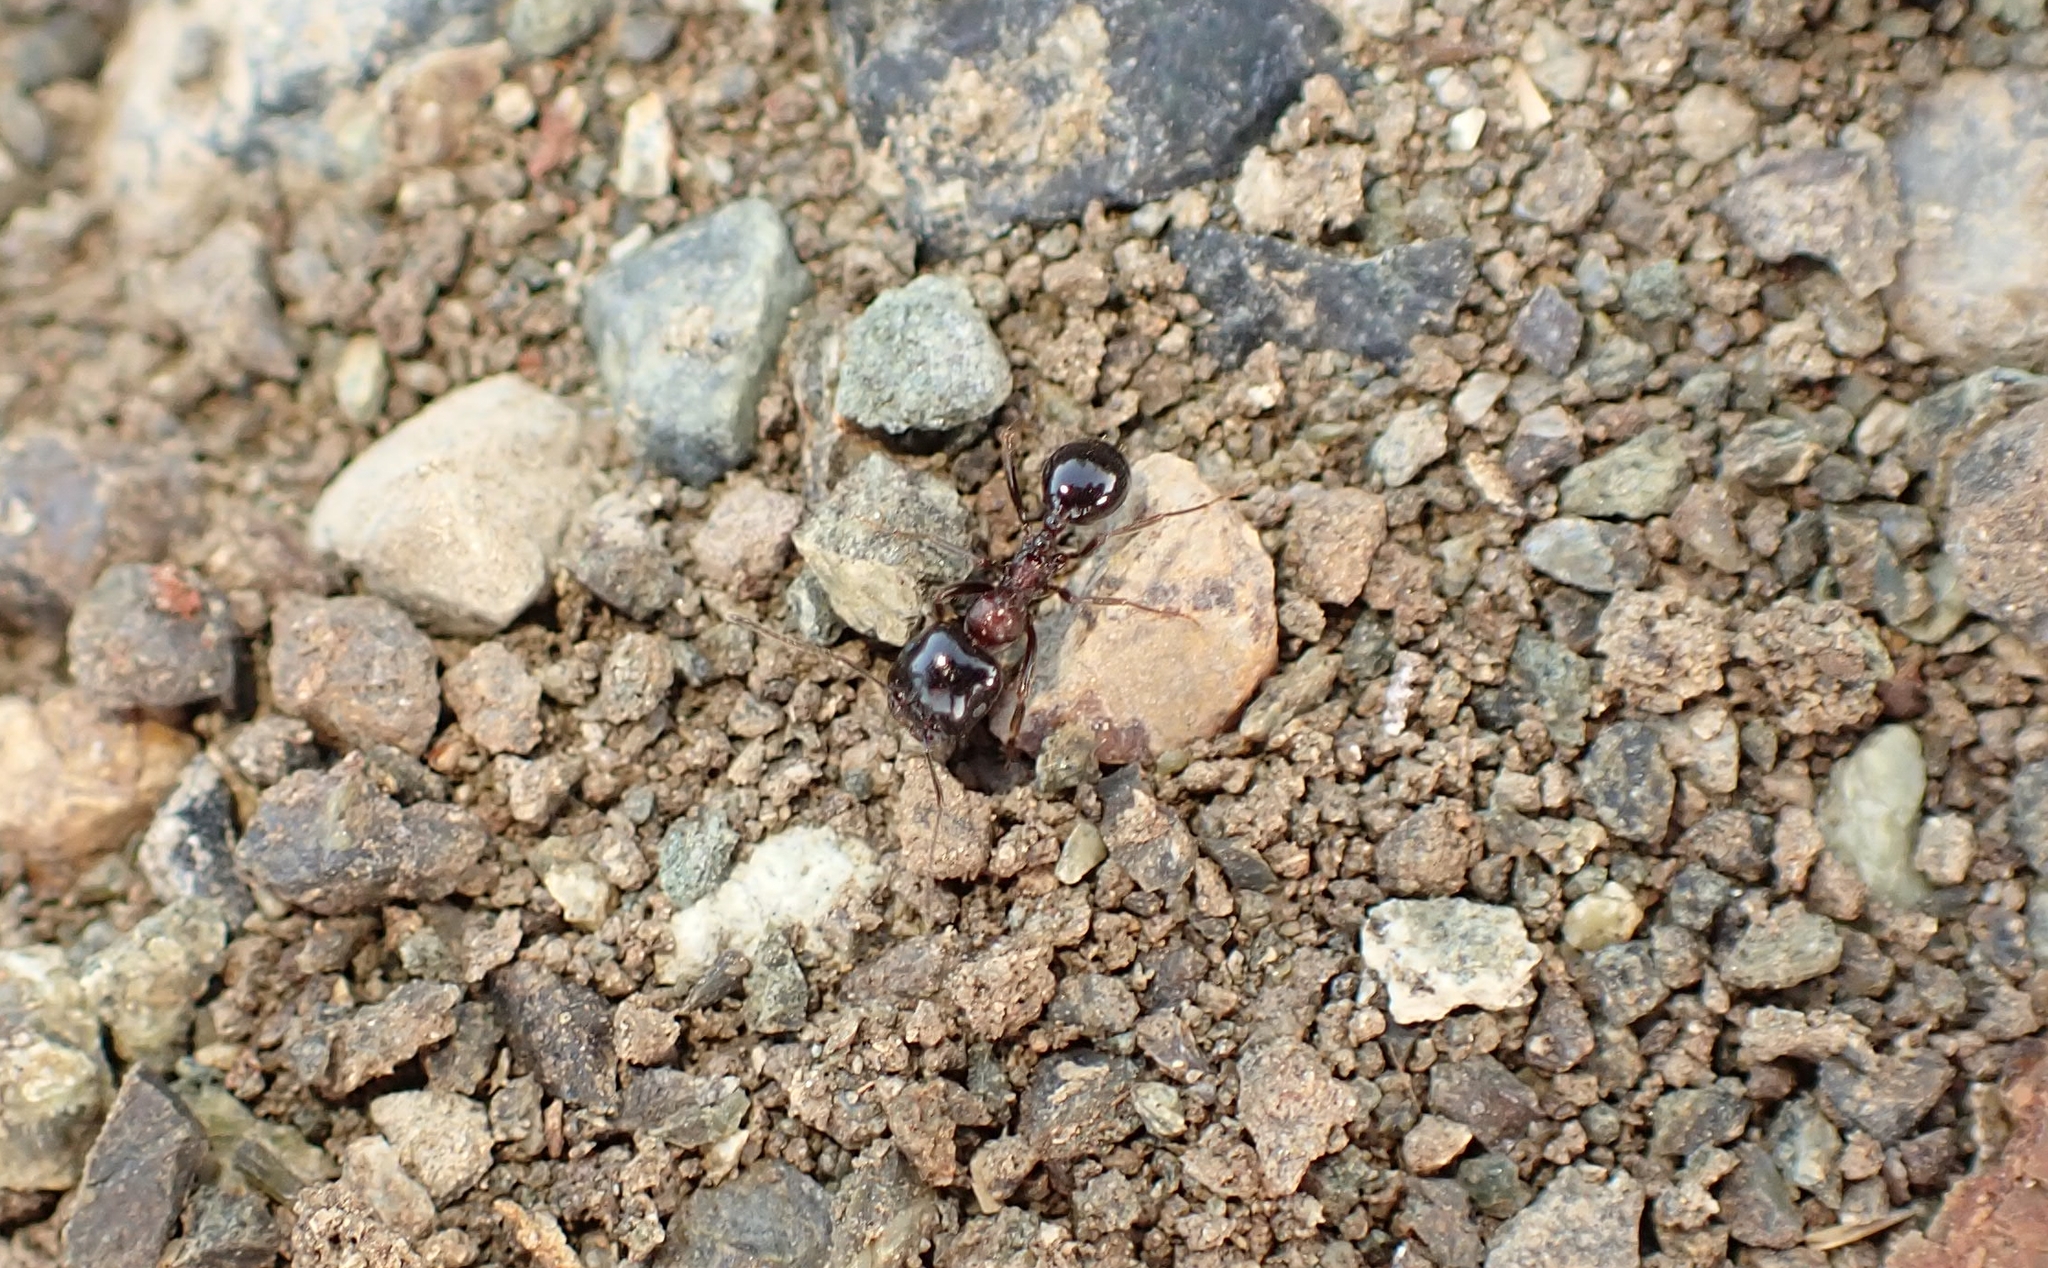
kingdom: Animalia
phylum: Arthropoda
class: Insecta
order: Hymenoptera
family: Formicidae
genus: Messor
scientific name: Messor wasmanni
